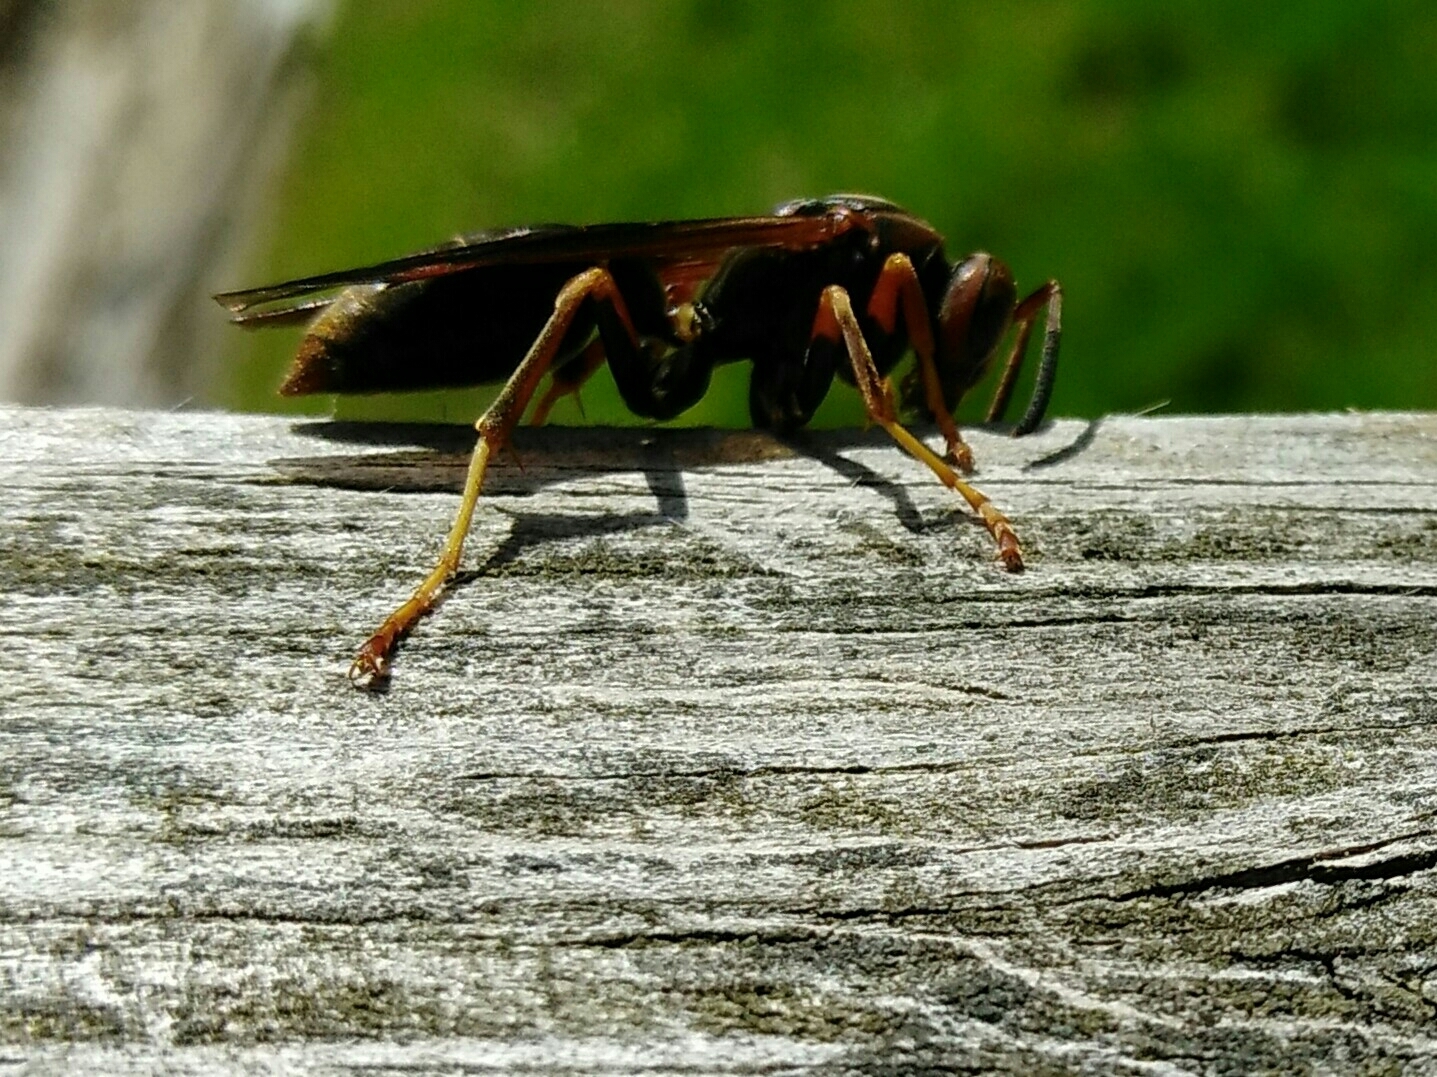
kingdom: Animalia
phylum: Arthropoda
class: Insecta
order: Hymenoptera
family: Eumenidae
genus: Polistes
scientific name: Polistes fuscatus
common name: Dark paper wasp
